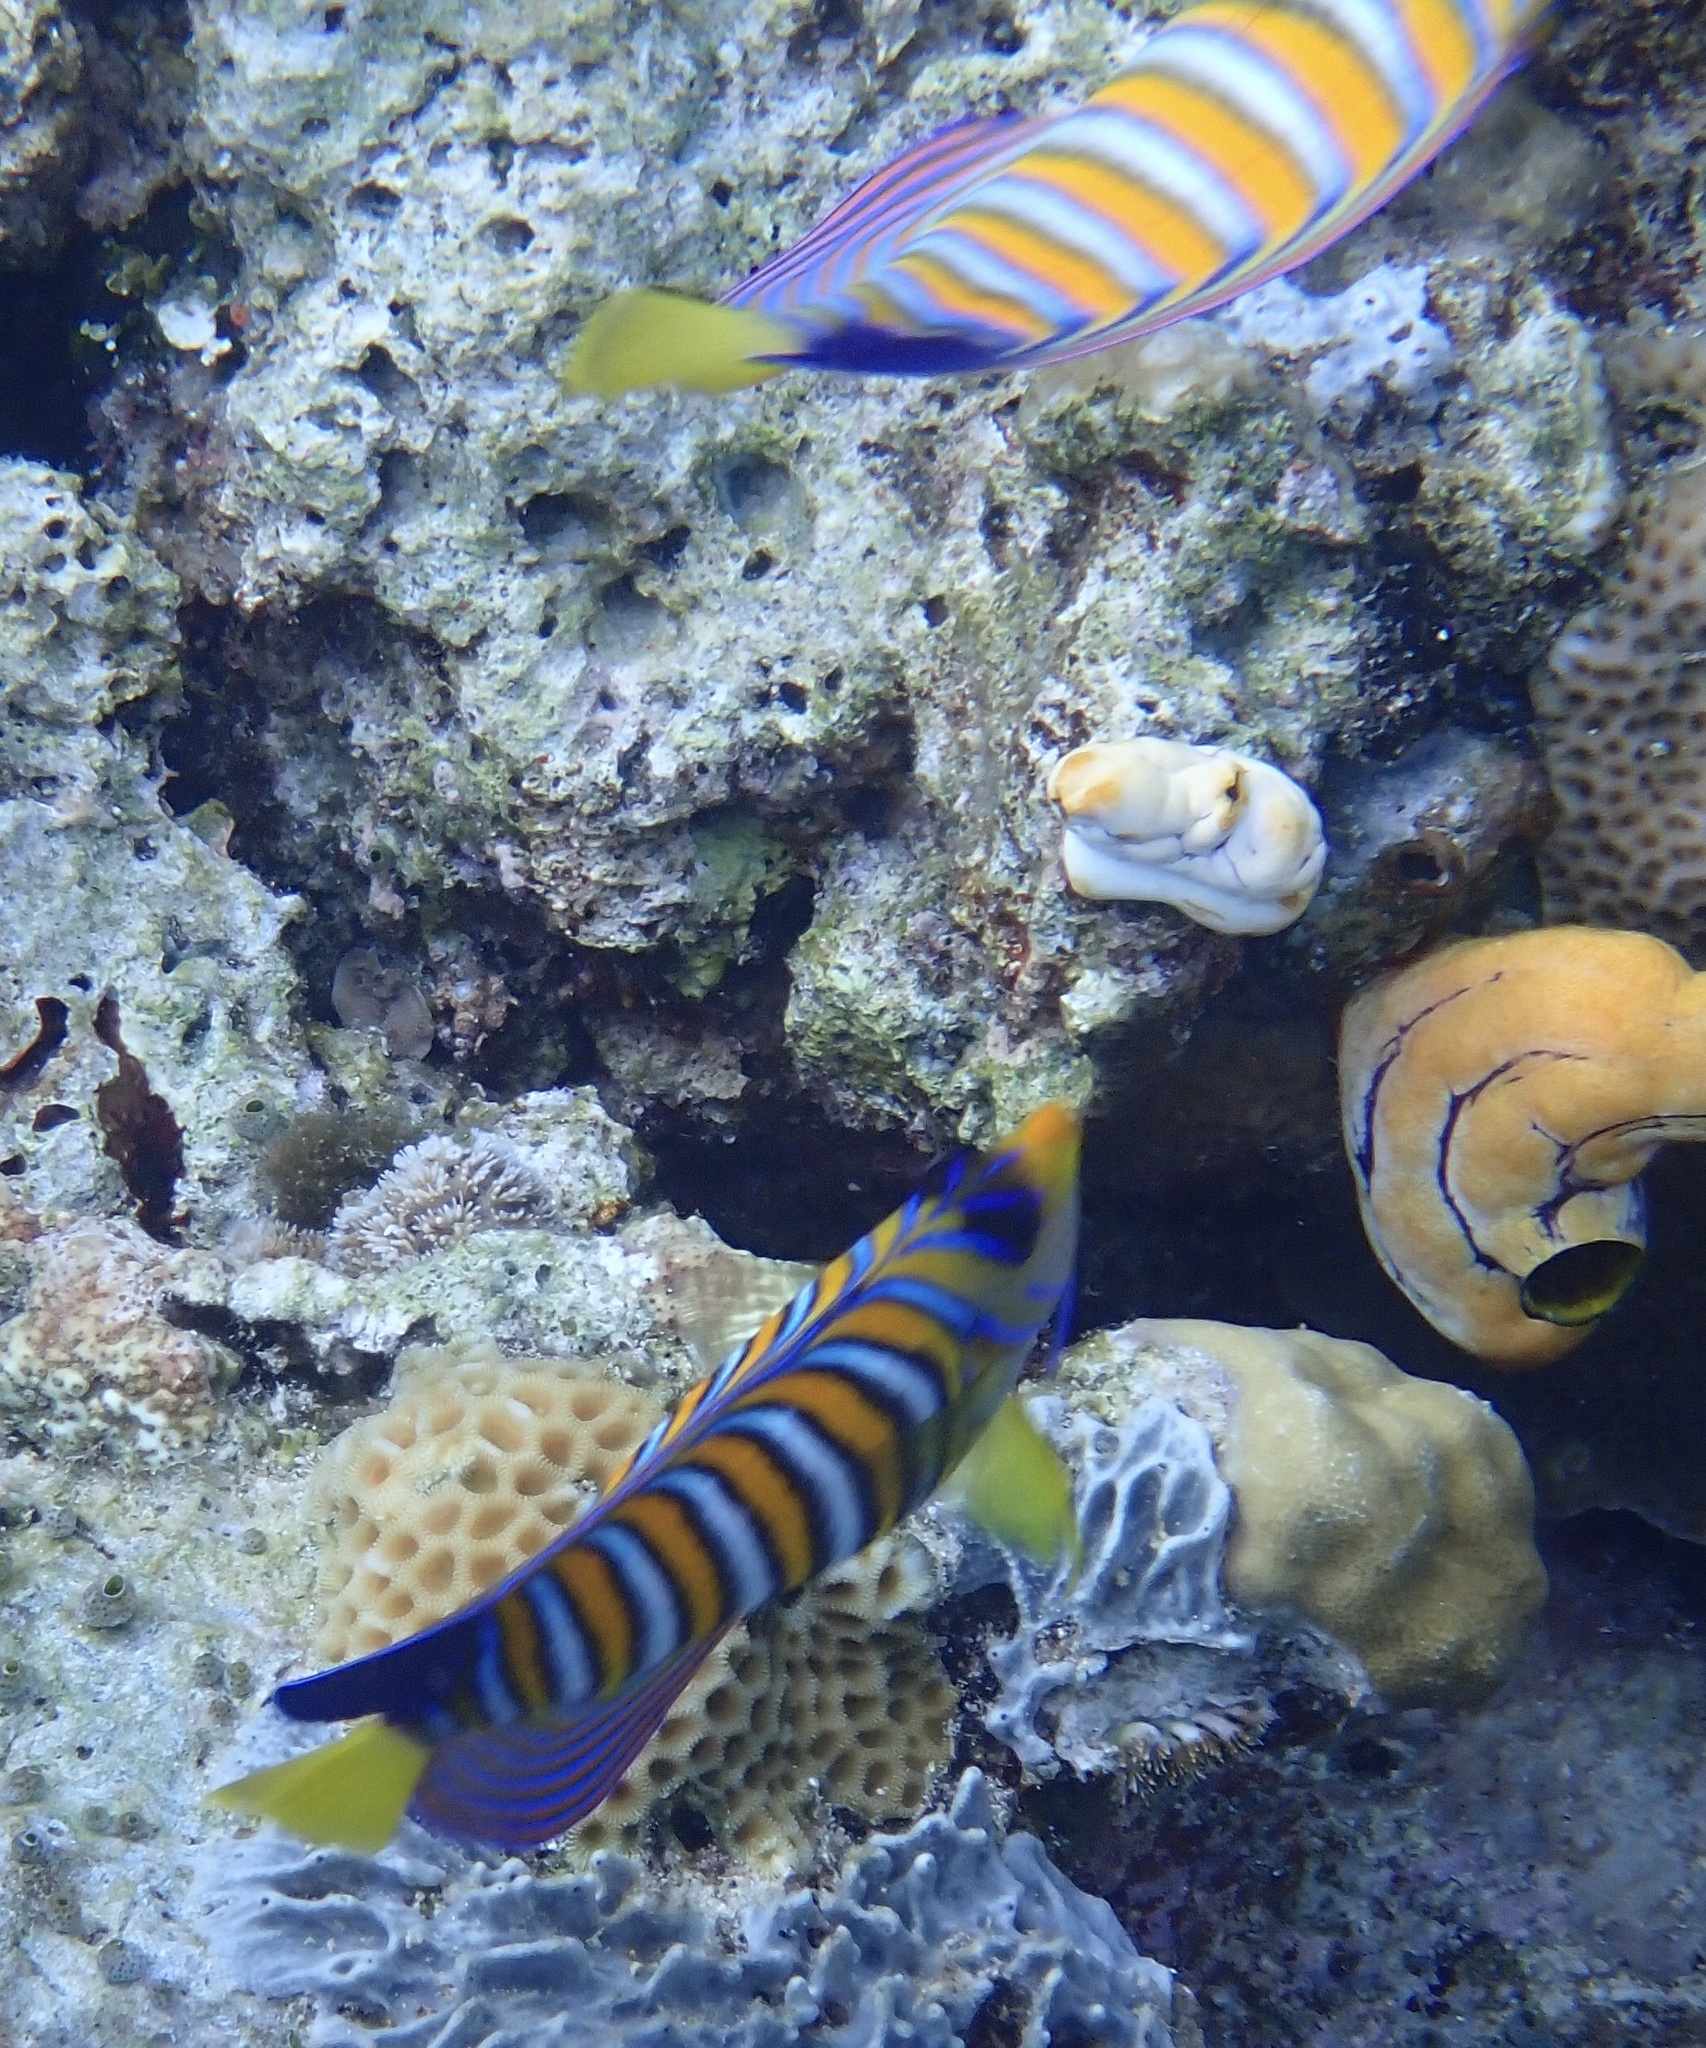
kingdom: Animalia
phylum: Chordata
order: Perciformes
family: Pomacanthidae
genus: Pygoplites
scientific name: Pygoplites diacanthus
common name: Regal angelfish
